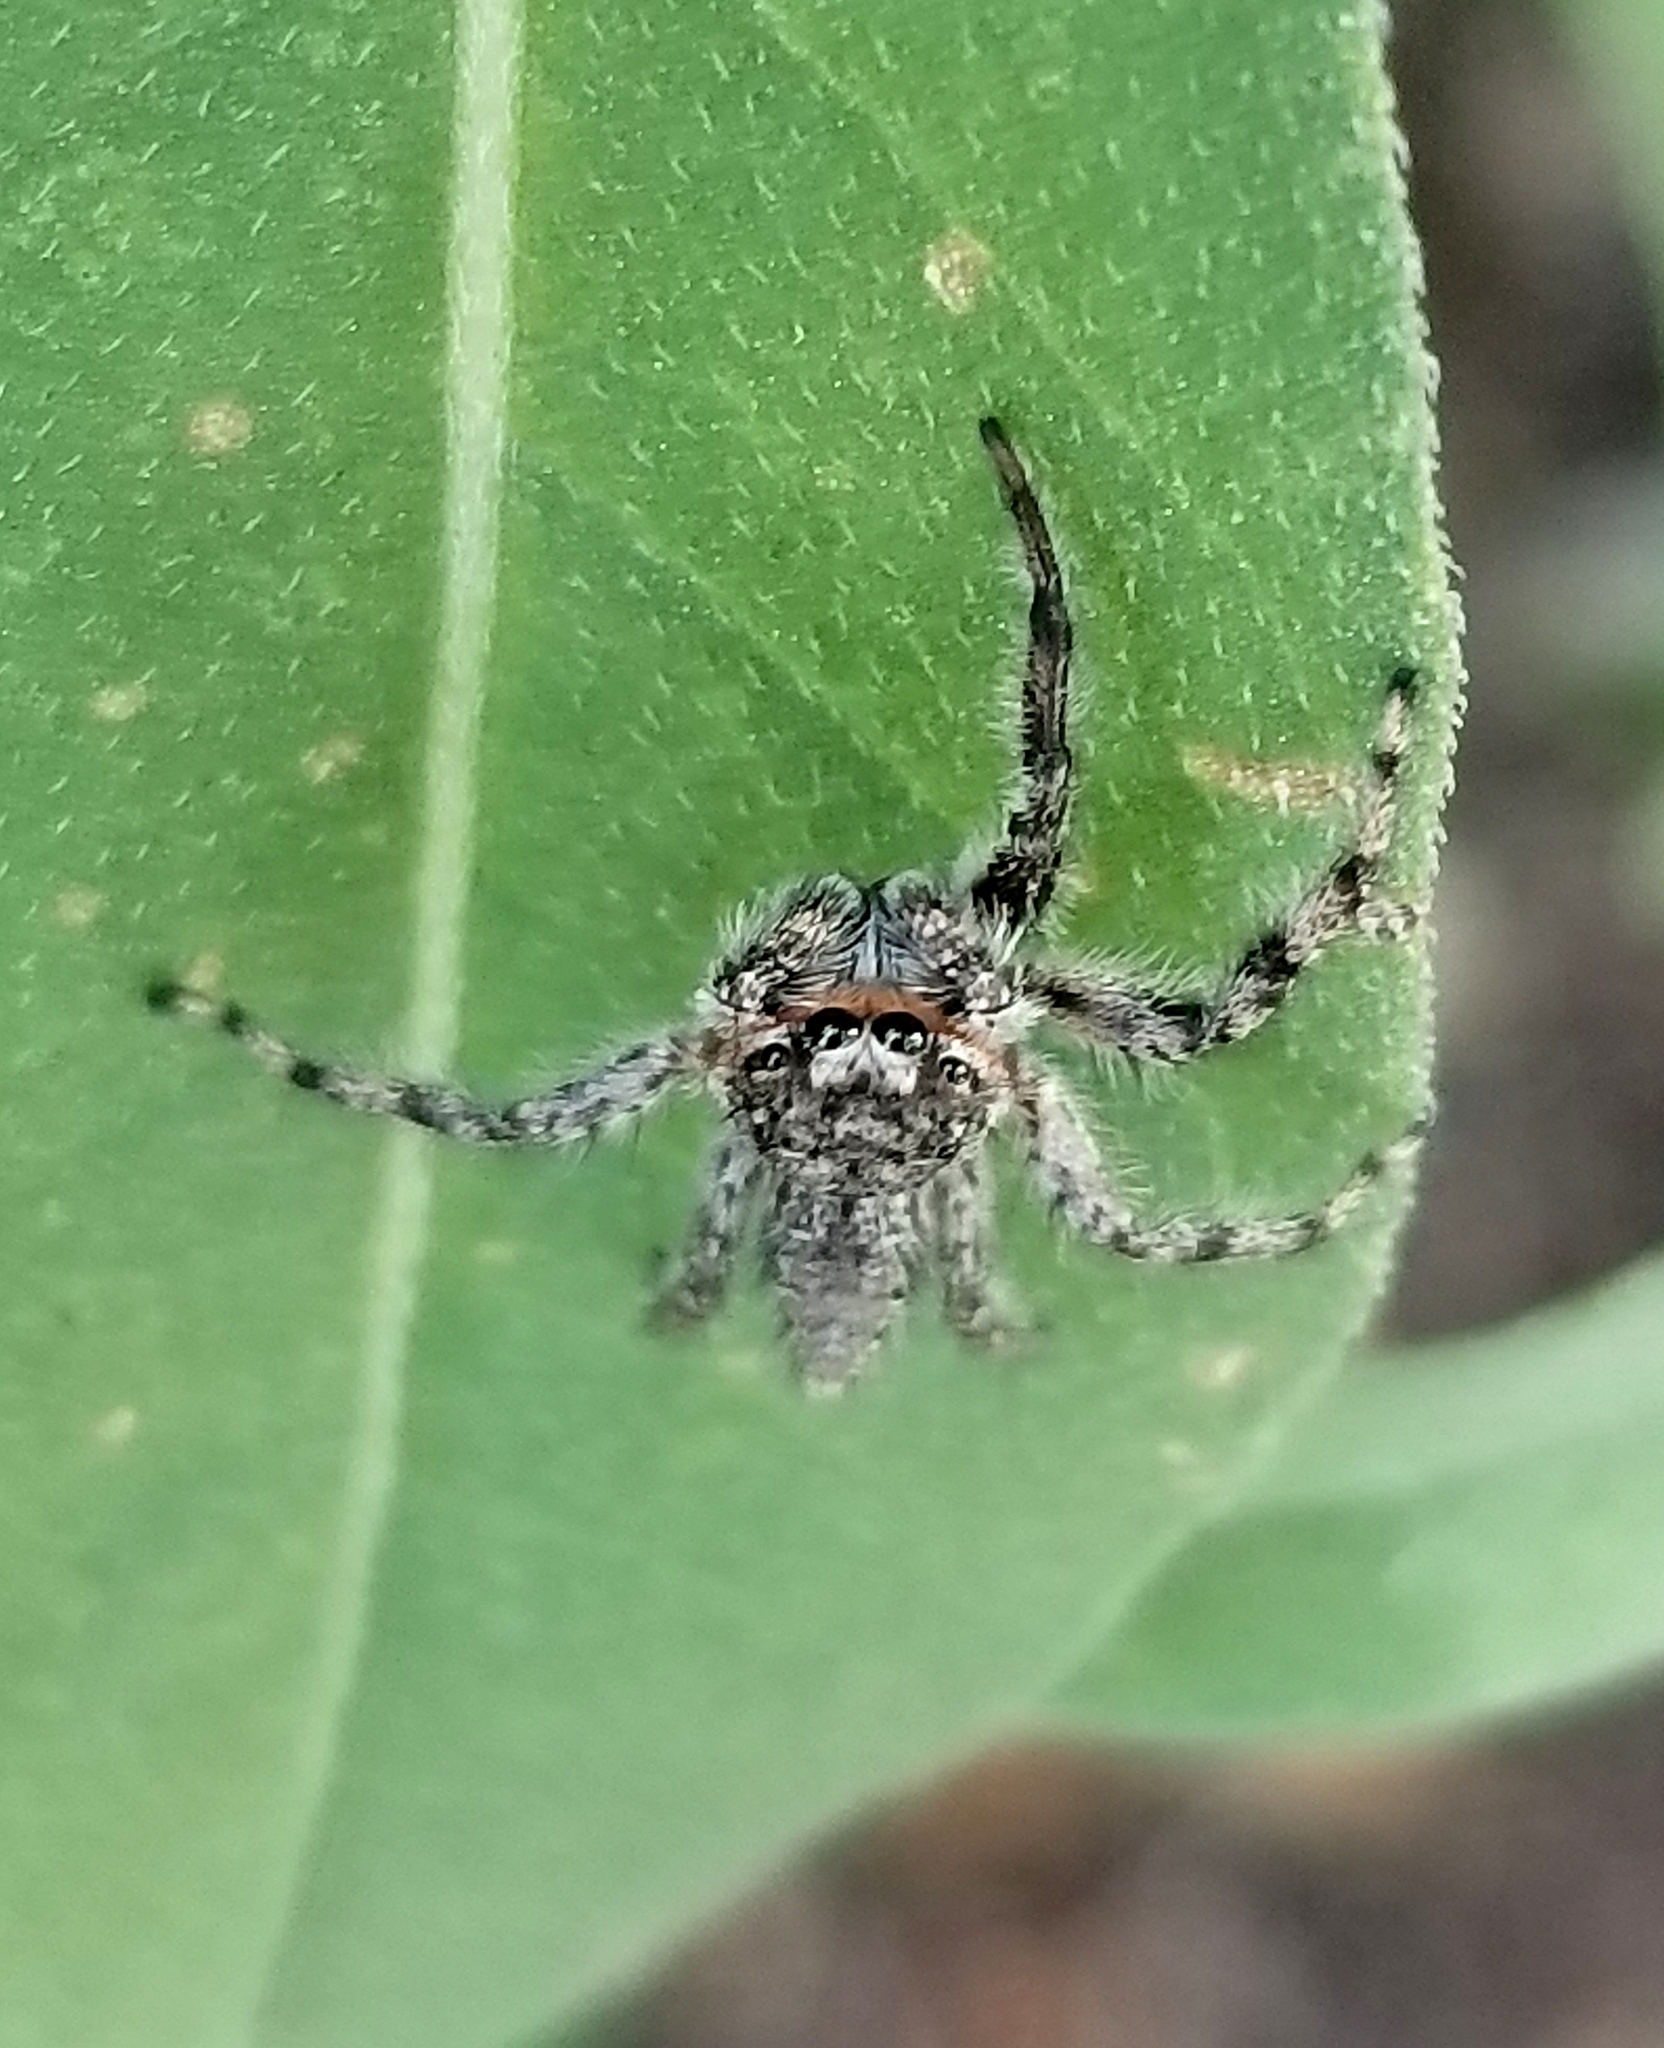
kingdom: Animalia
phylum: Arthropoda
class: Arachnida
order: Araneae
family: Salticidae
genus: Platycryptus
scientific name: Platycryptus undatus
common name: Tan jumping spider
